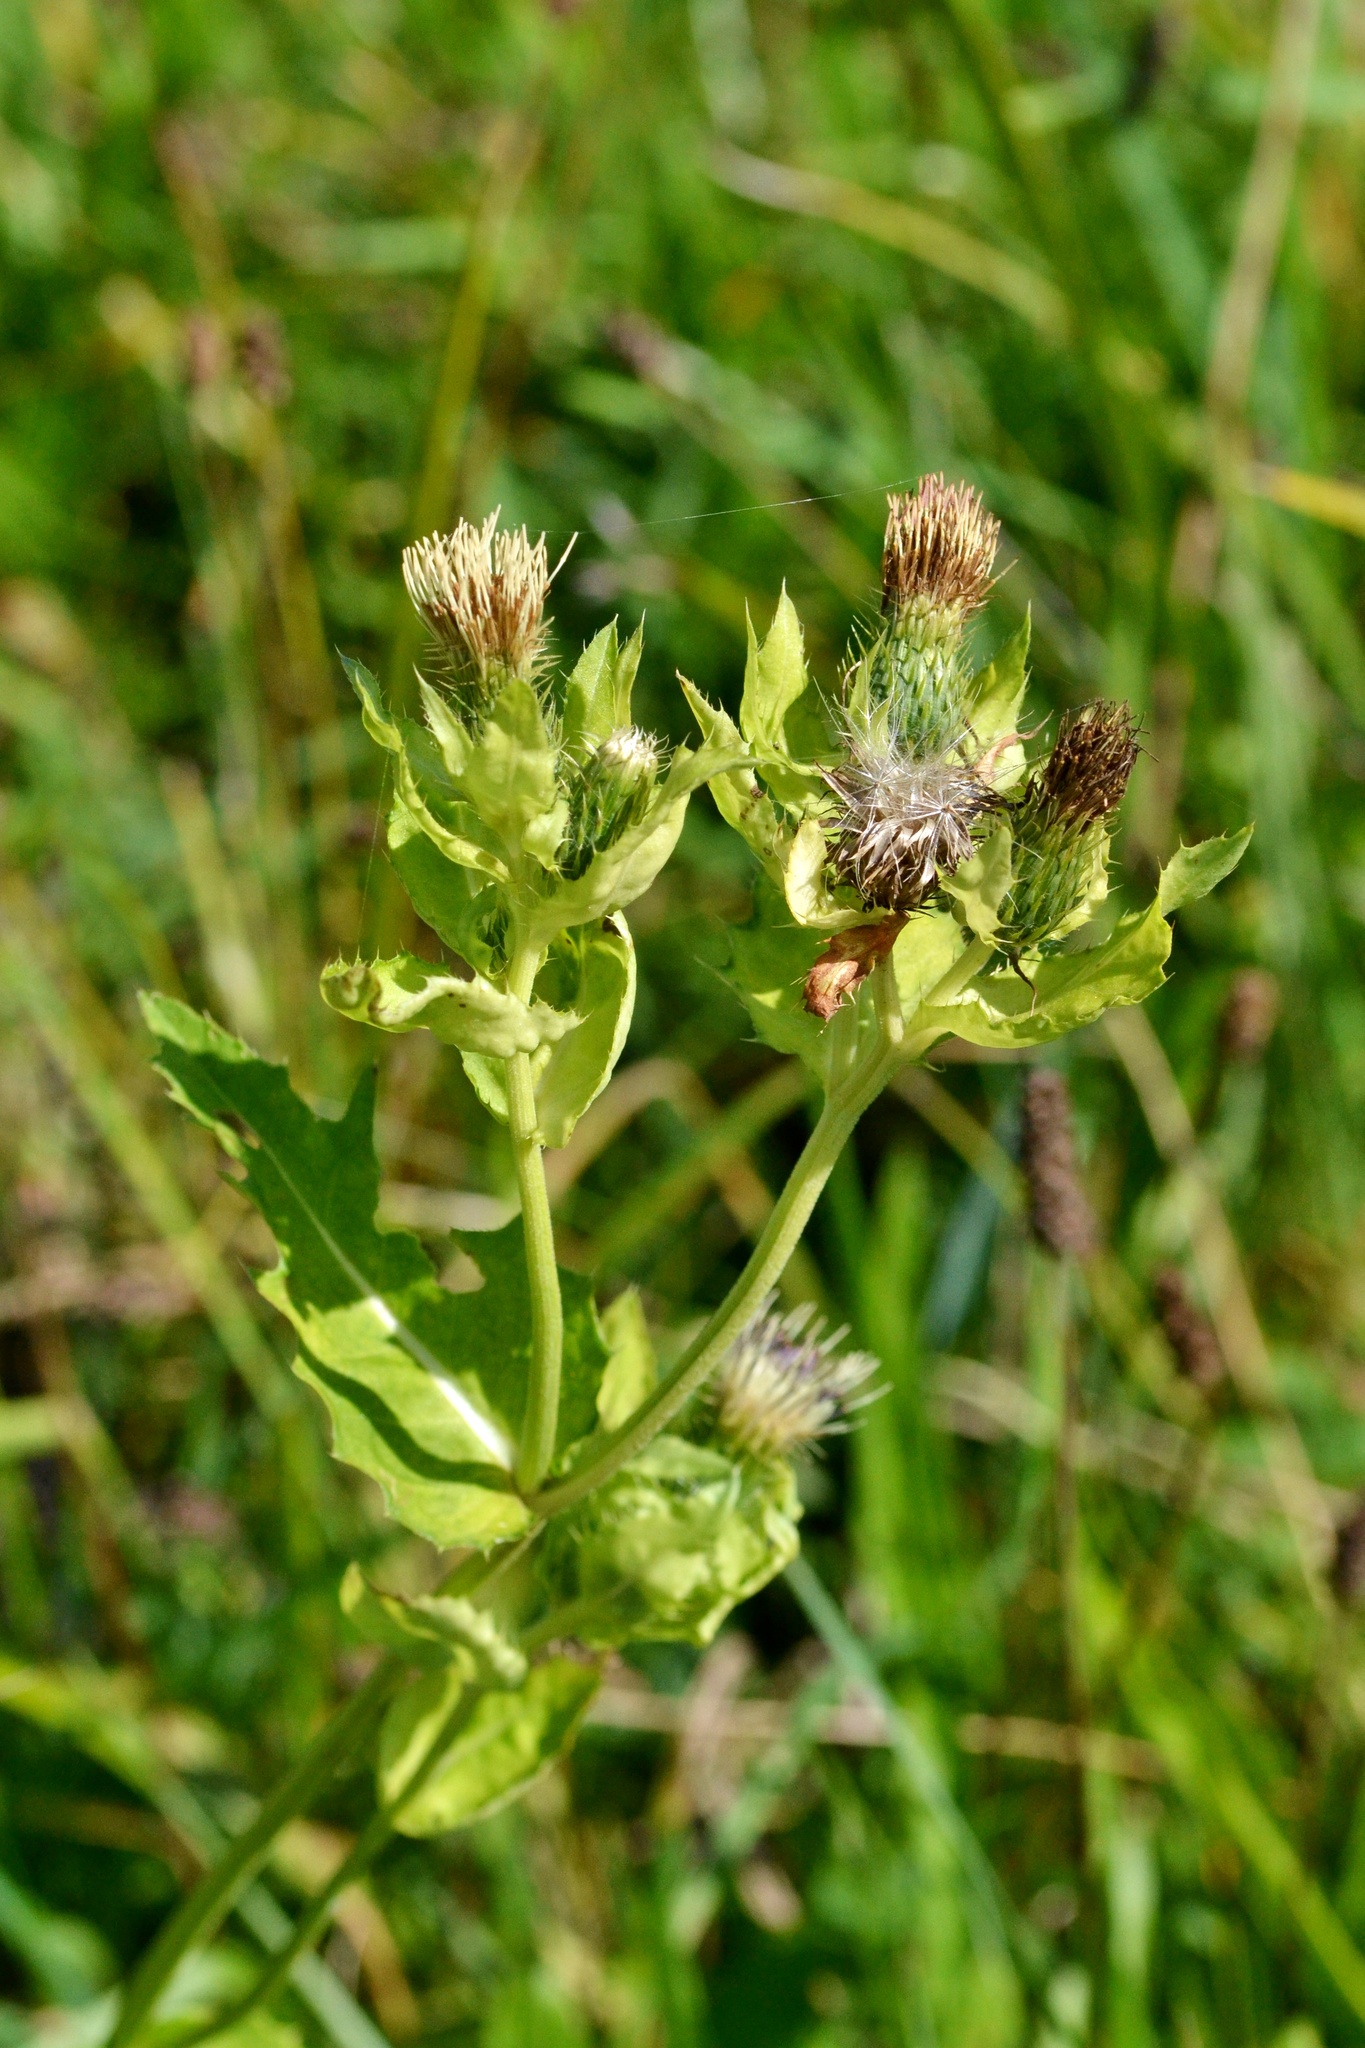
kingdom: Plantae
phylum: Tracheophyta
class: Magnoliopsida
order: Asterales
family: Asteraceae
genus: Cirsium
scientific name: Cirsium oleraceum
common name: Cabbage thistle
